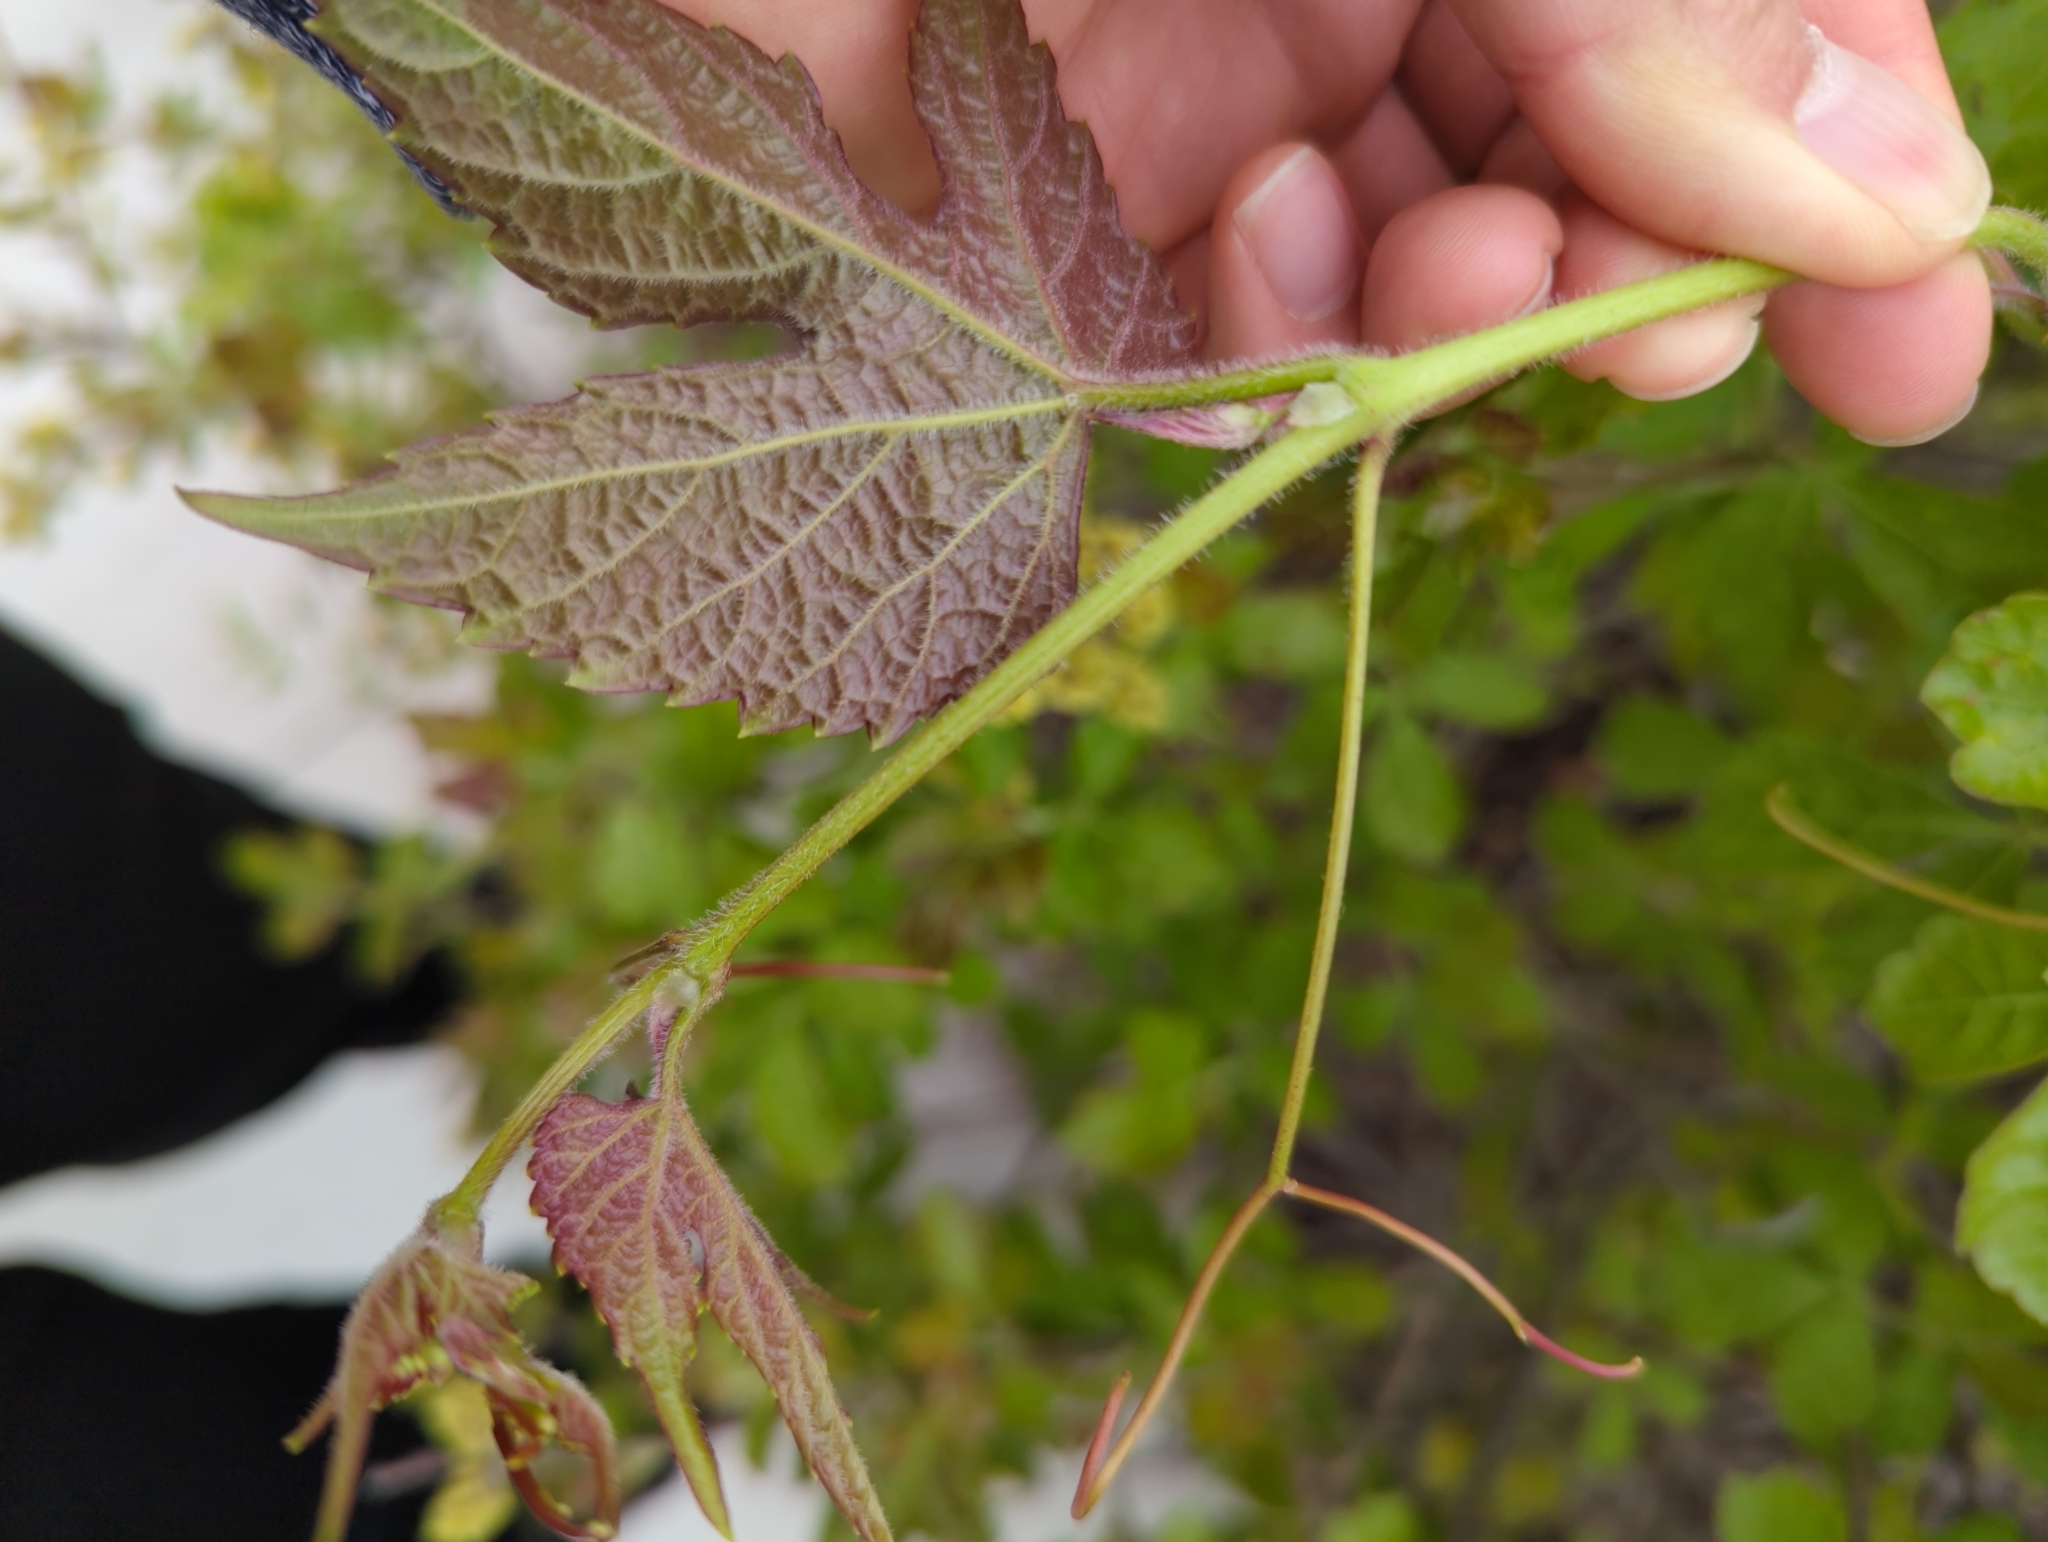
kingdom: Plantae
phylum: Tracheophyta
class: Magnoliopsida
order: Vitales
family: Vitaceae
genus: Ampelopsis
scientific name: Ampelopsis glandulosa
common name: Amur peppervine
